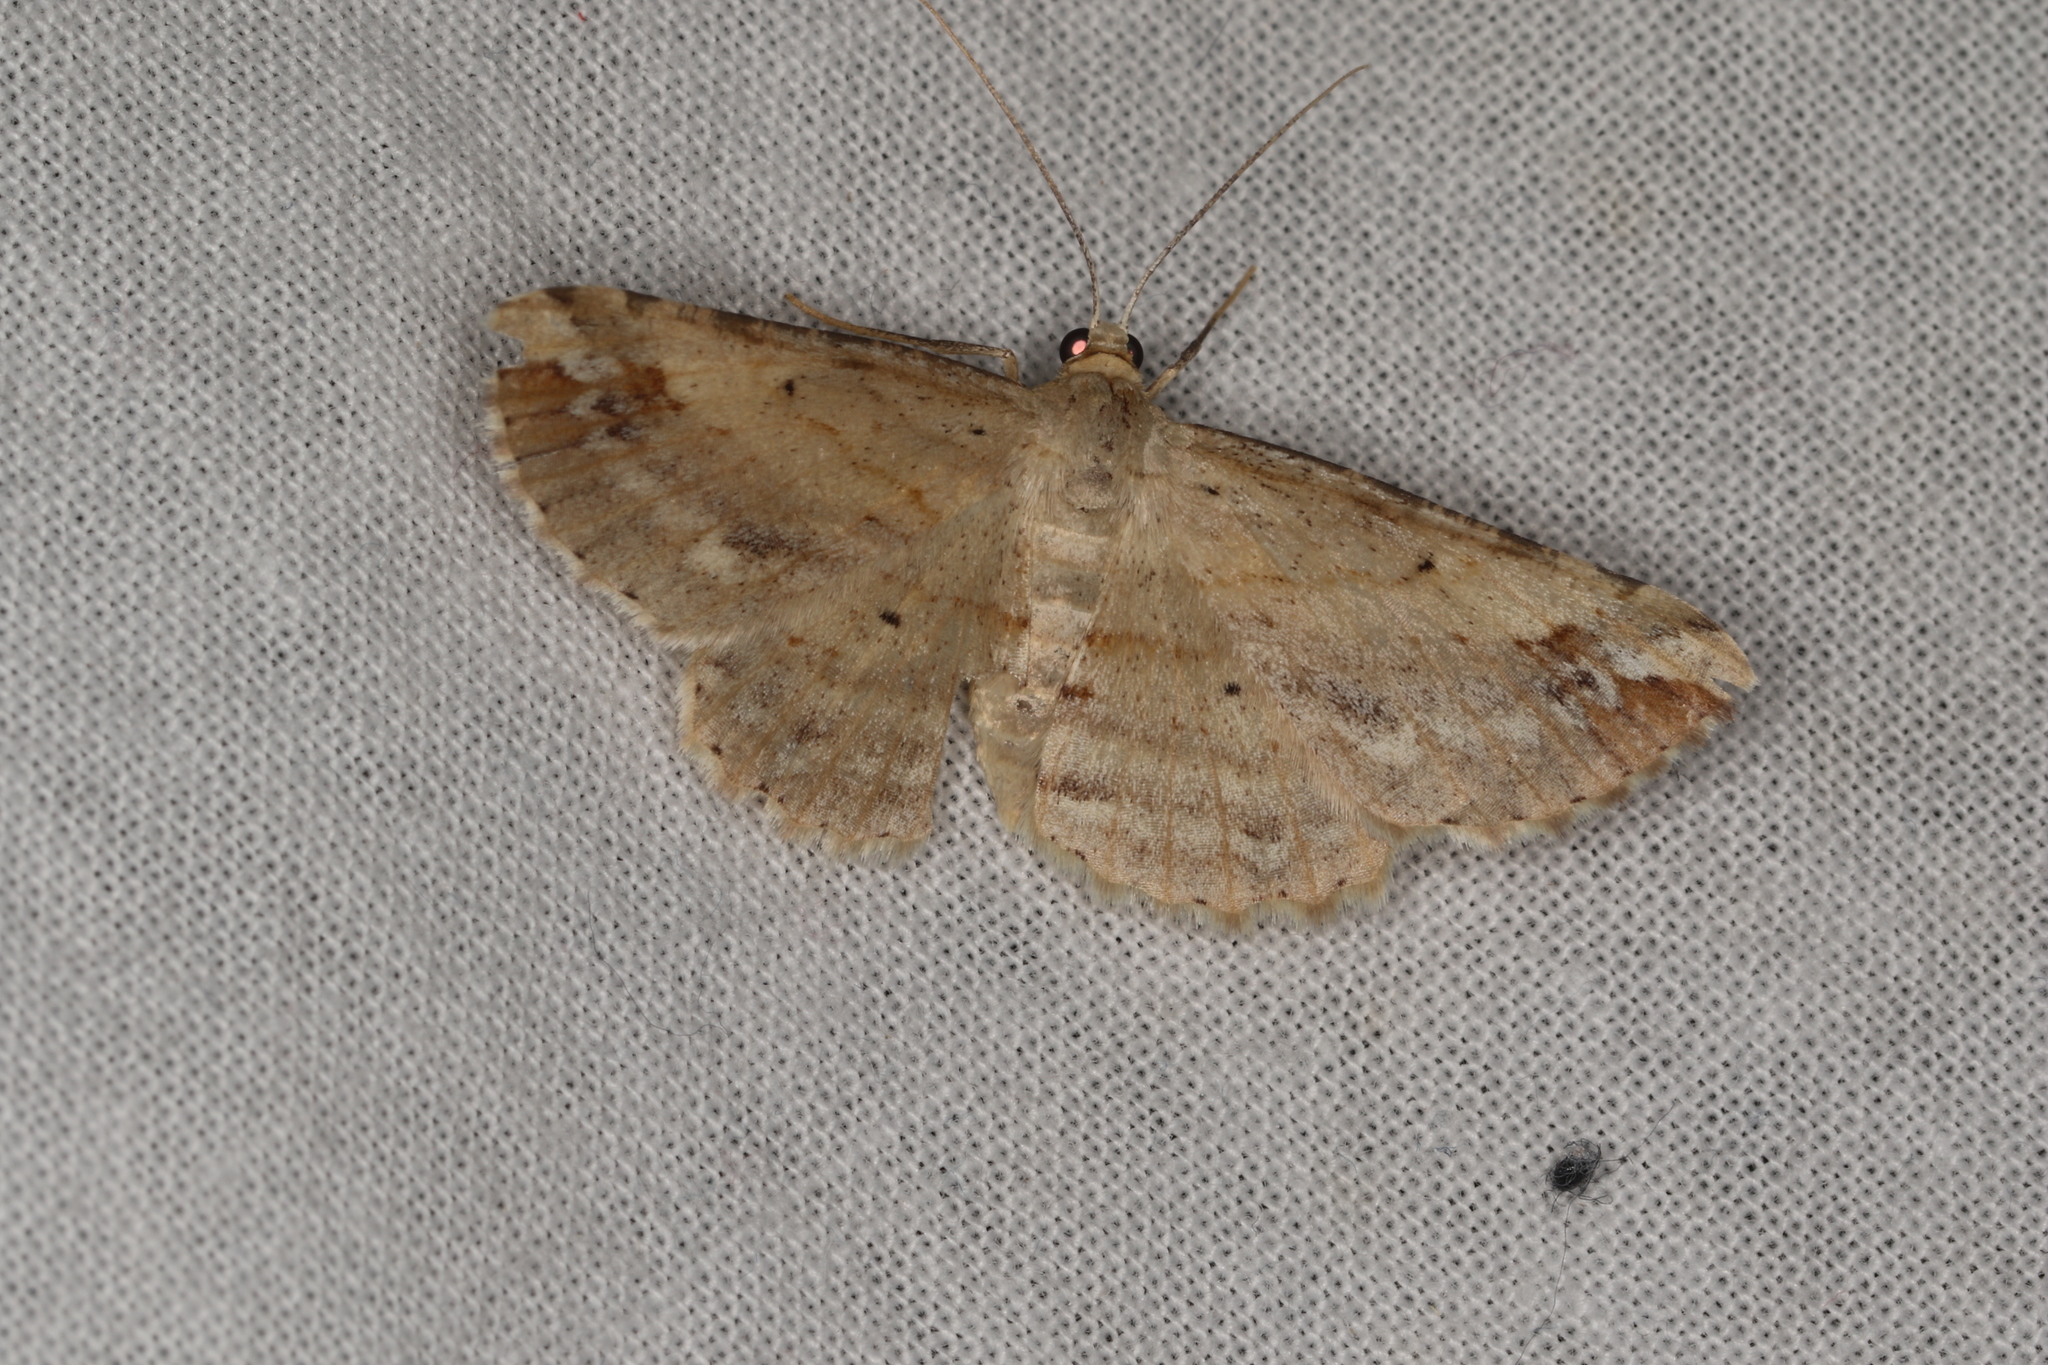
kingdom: Animalia
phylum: Arthropoda
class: Insecta
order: Lepidoptera
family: Geometridae
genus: Syneora
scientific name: Syneora lithina
